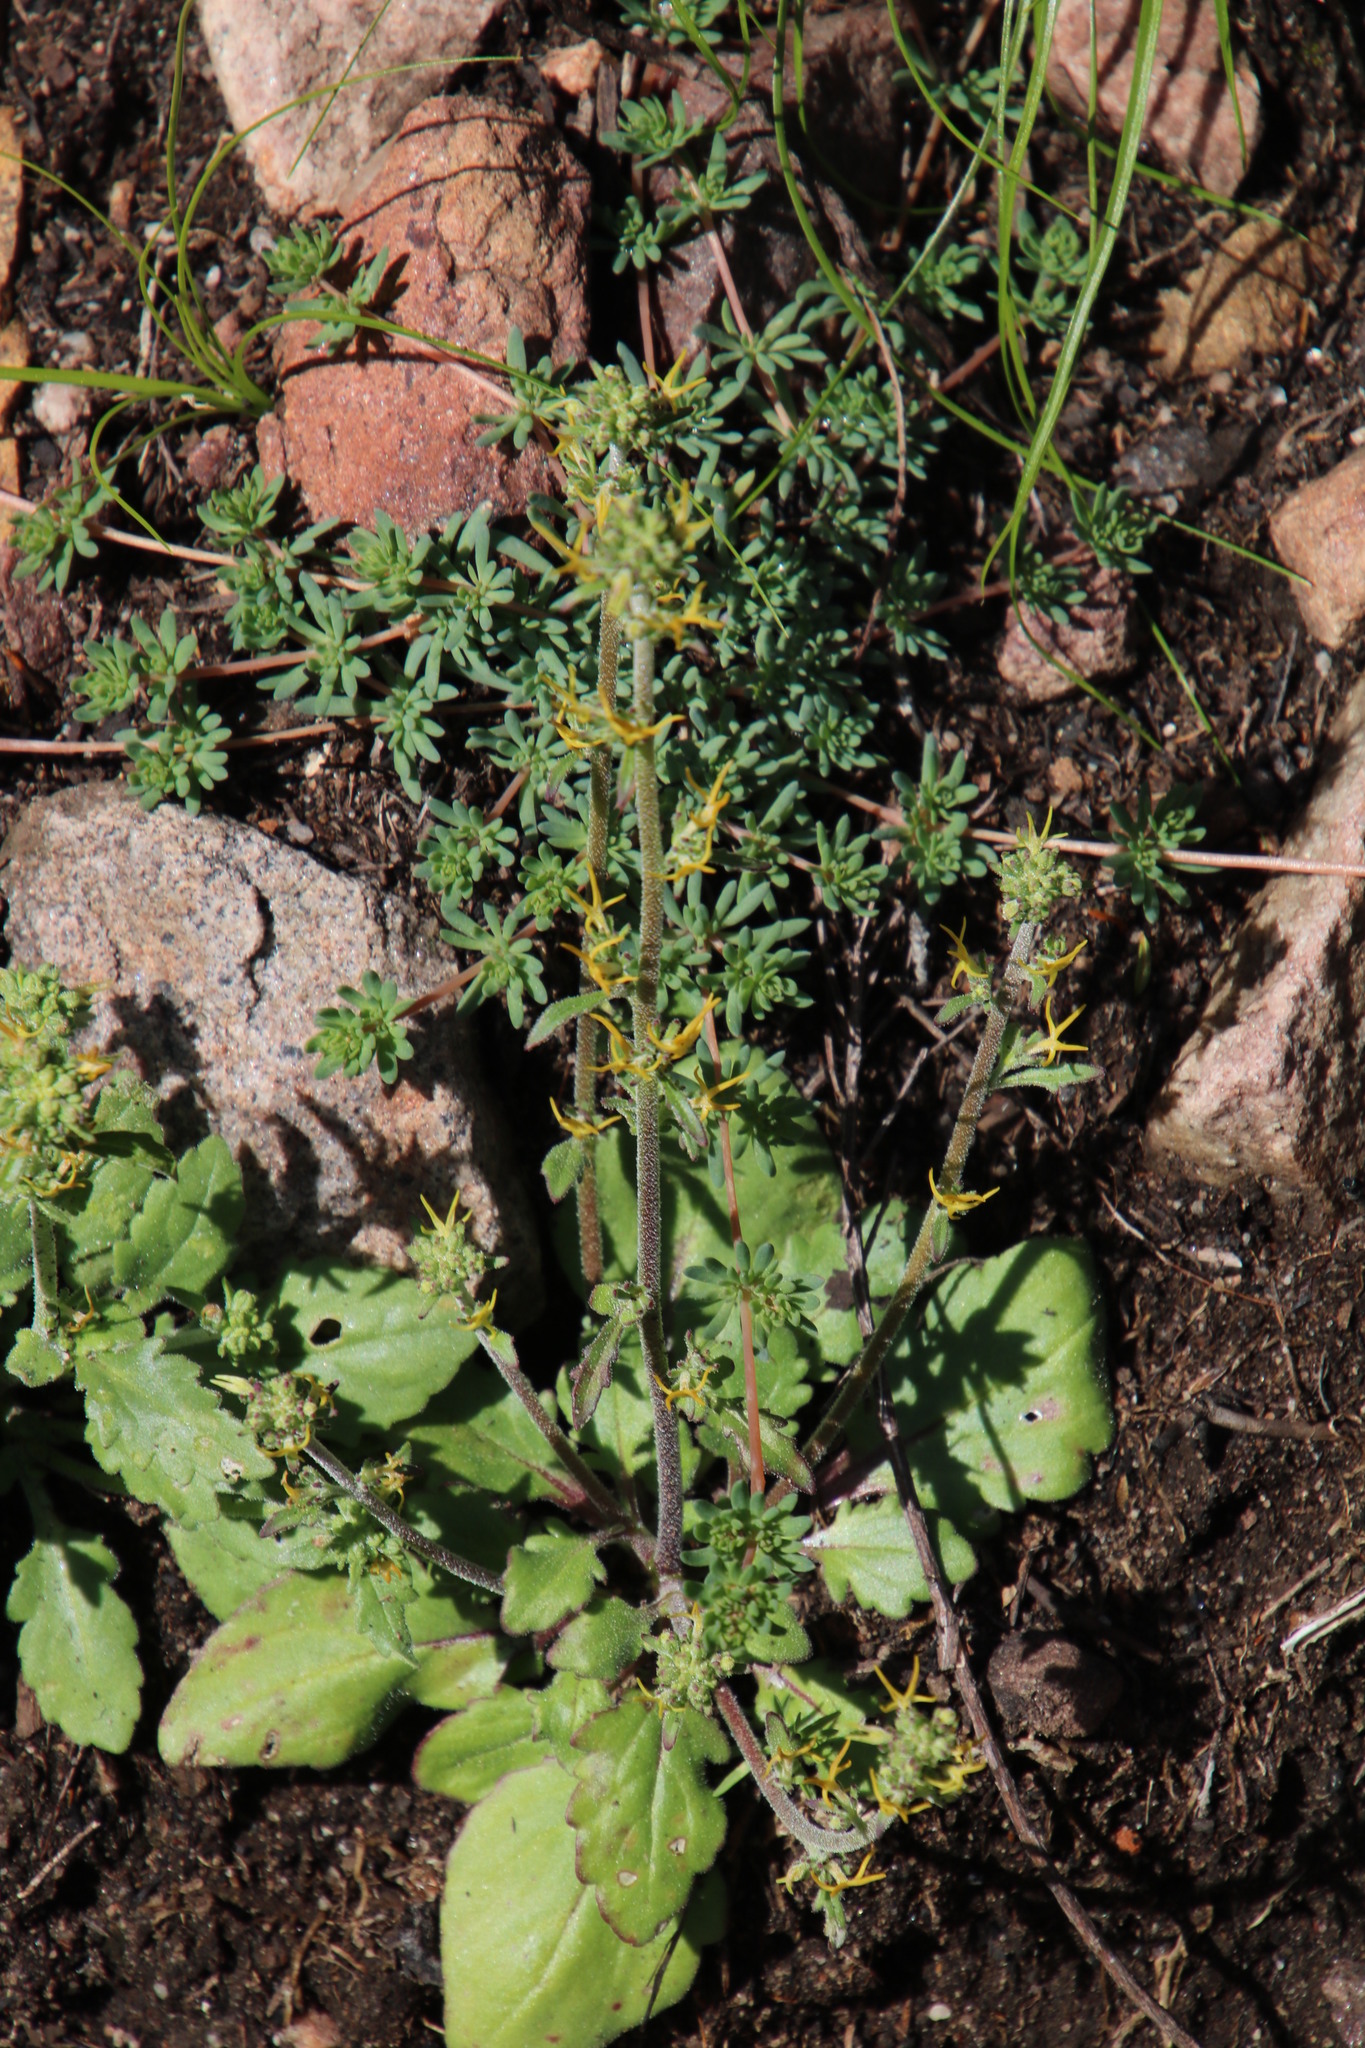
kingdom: Plantae
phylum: Tracheophyta
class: Magnoliopsida
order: Lamiales
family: Scrophulariaceae
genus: Manulea
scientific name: Manulea cheiranthus
